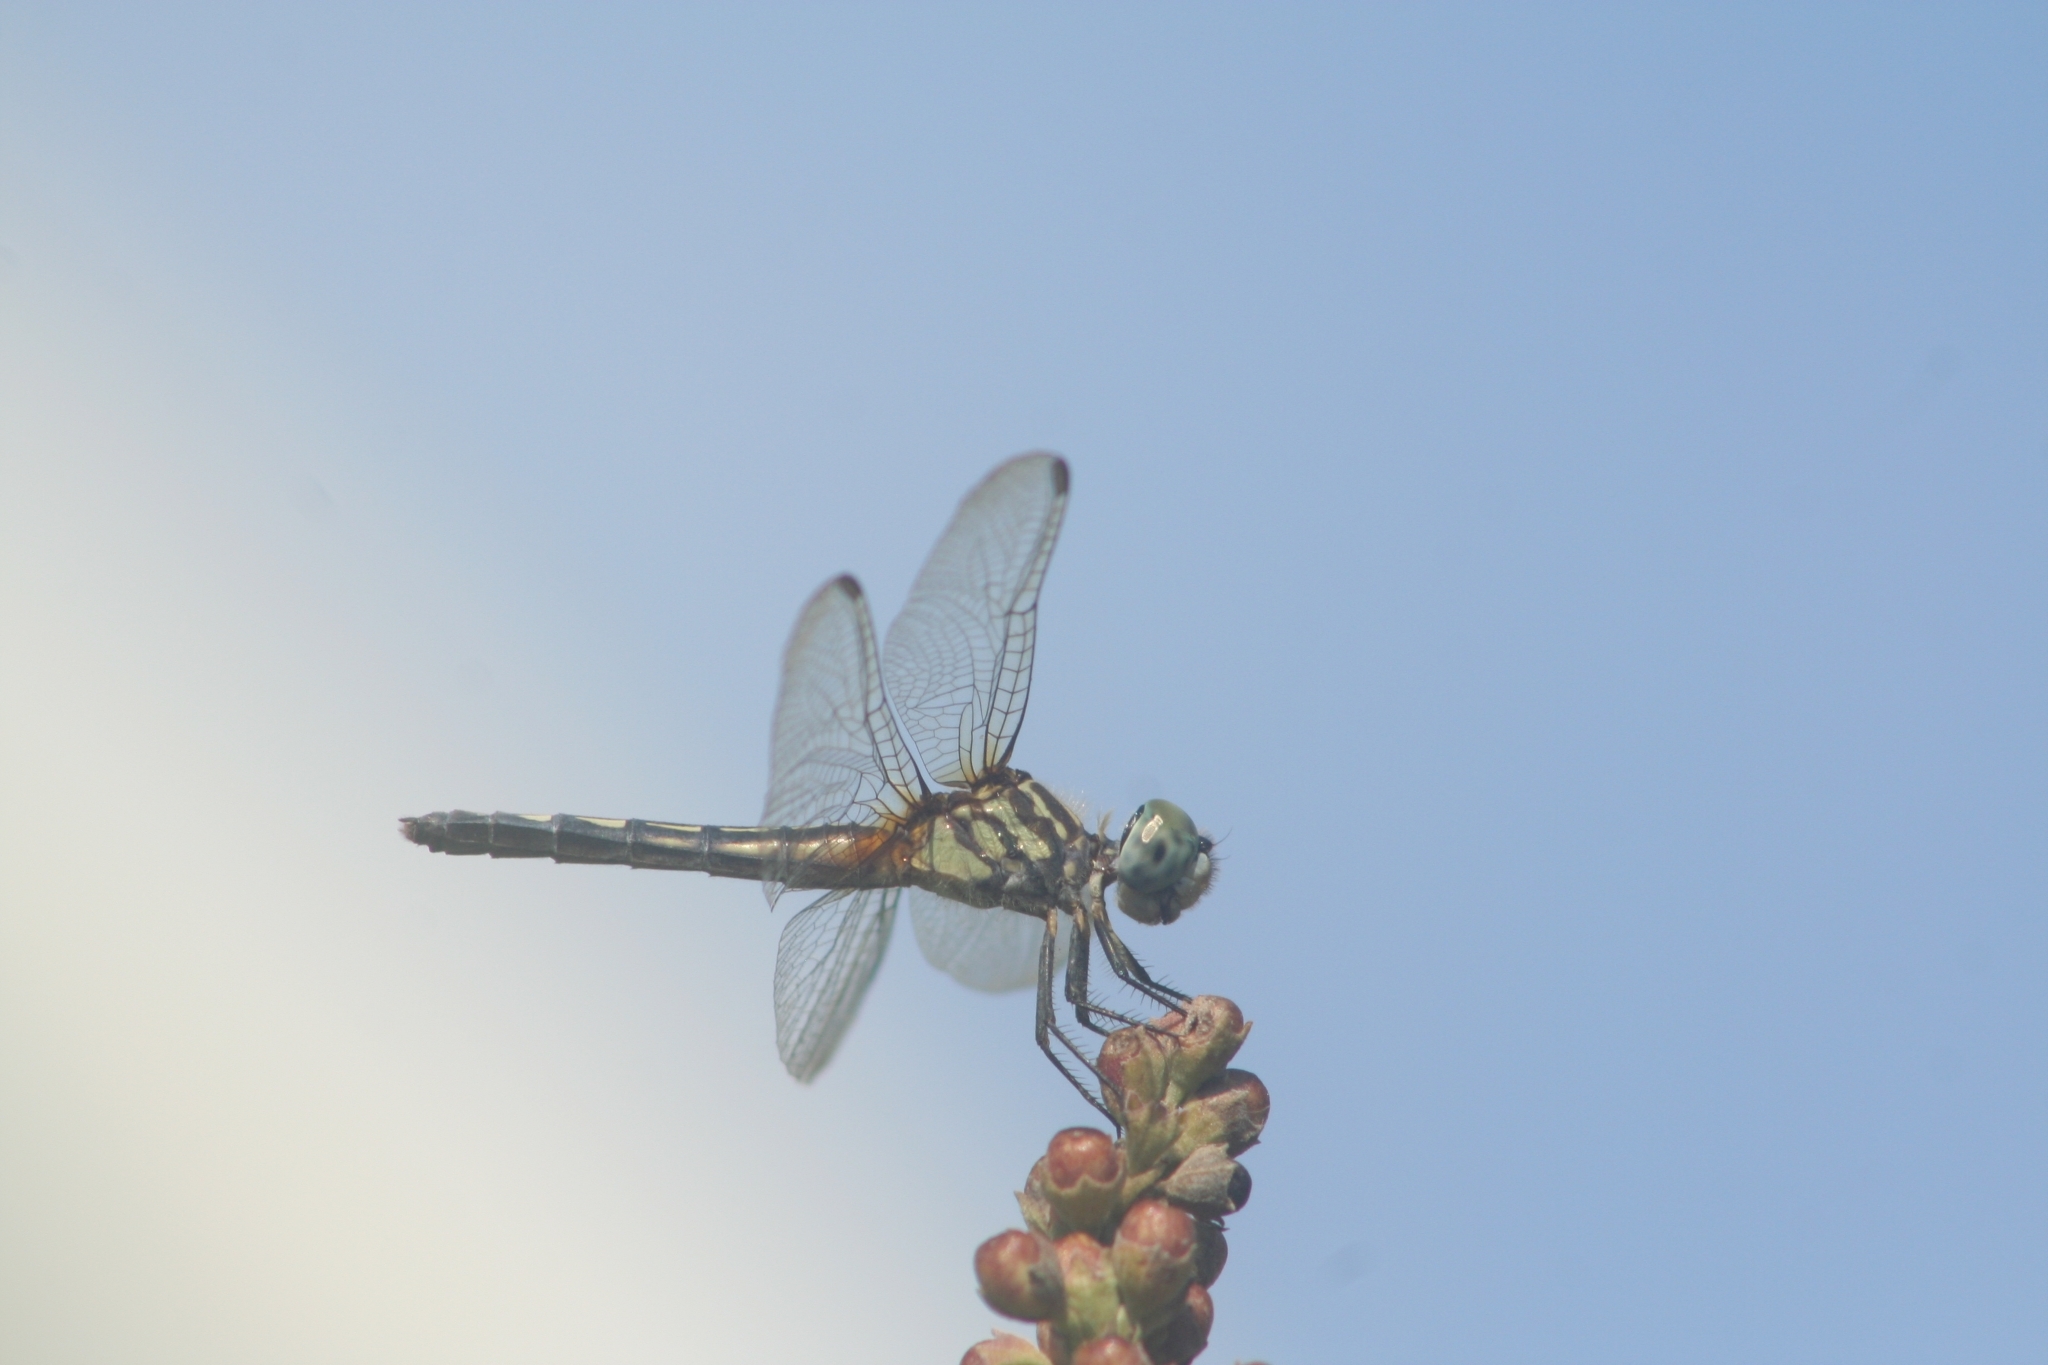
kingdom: Animalia
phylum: Arthropoda
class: Insecta
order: Odonata
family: Libellulidae
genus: Pachydiplax
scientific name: Pachydiplax longipennis
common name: Blue dasher
